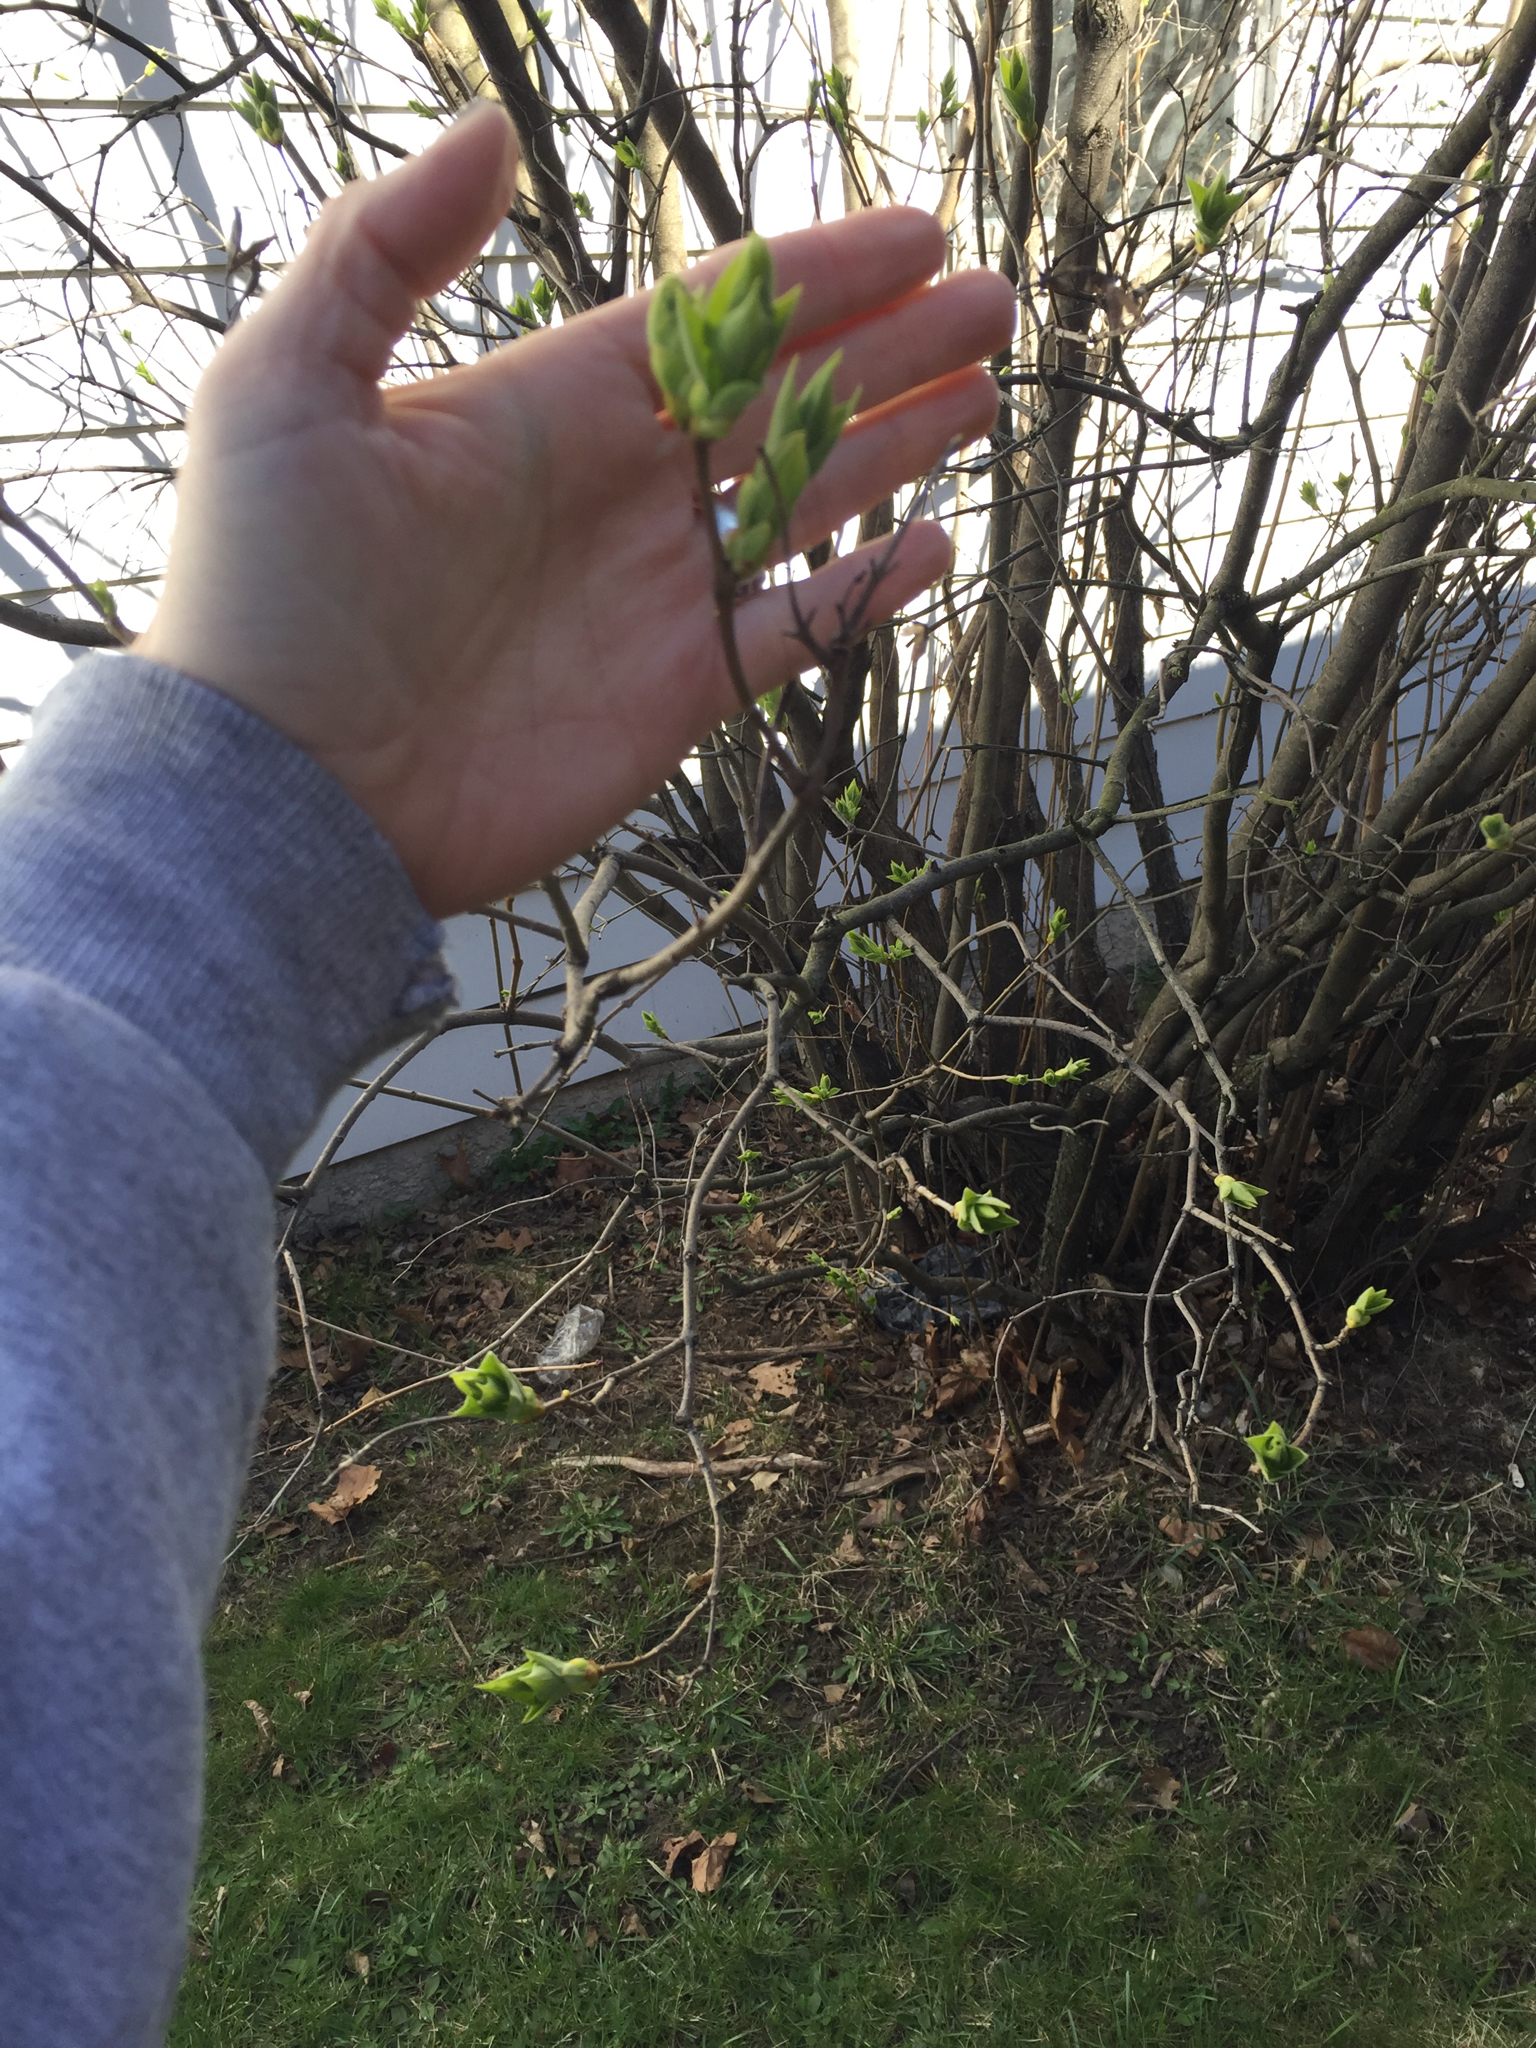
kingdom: Plantae
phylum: Tracheophyta
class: Magnoliopsida
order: Lamiales
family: Oleaceae
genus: Syringa
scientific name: Syringa vulgaris
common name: Common lilac
